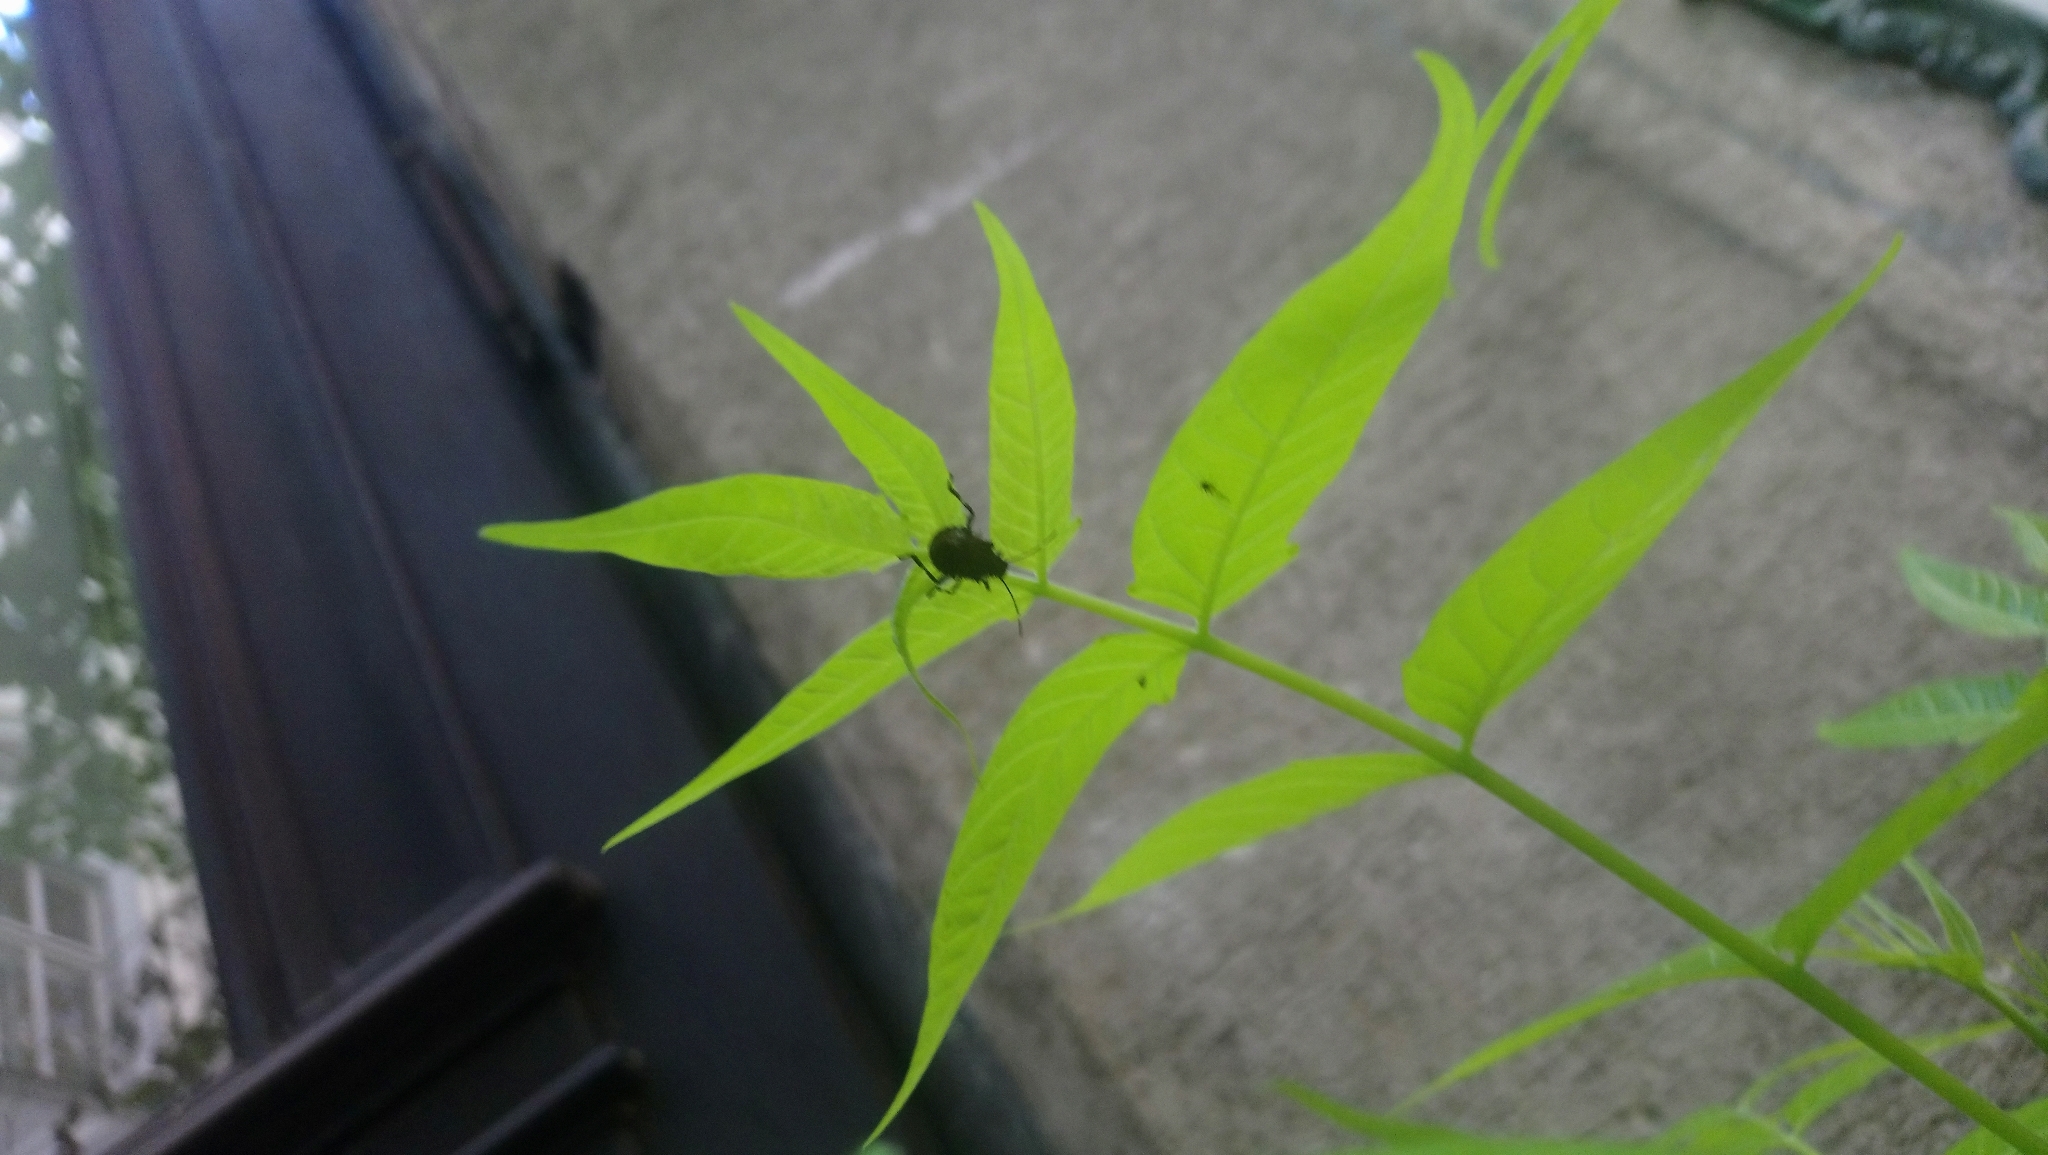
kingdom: Animalia
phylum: Arthropoda
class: Insecta
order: Hemiptera
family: Pentatomidae
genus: Halyomorpha
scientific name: Halyomorpha halys
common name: Brown marmorated stink bug
